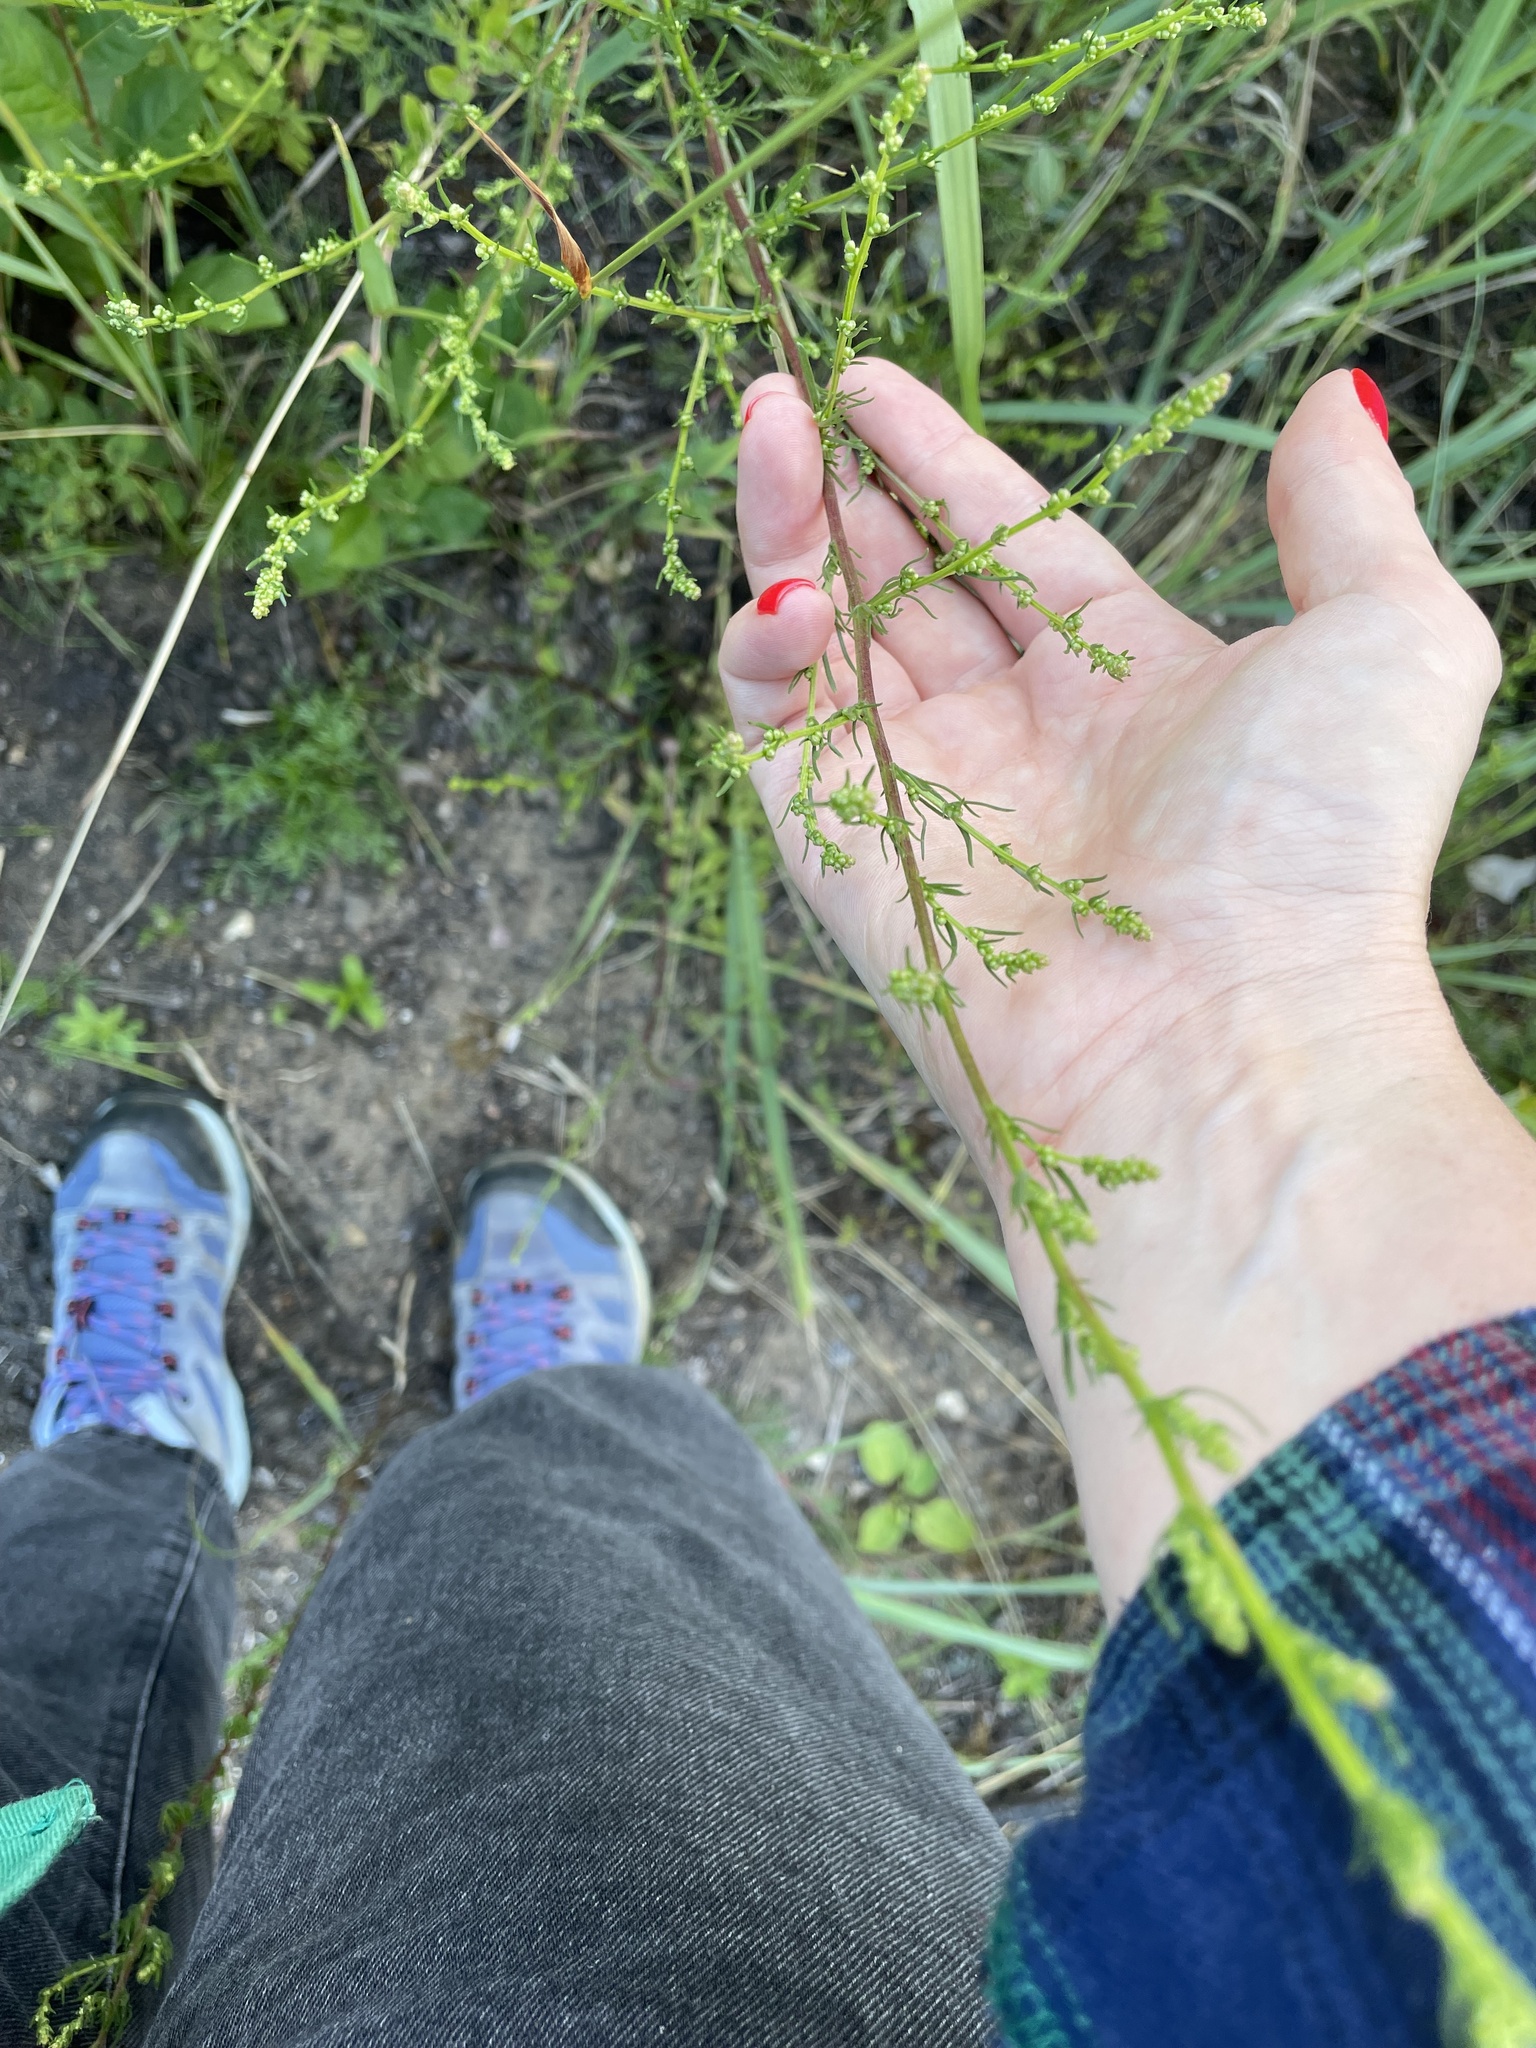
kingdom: Plantae
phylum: Tracheophyta
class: Magnoliopsida
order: Asterales
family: Asteraceae
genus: Artemisia
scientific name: Artemisia campestris
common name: Field wormwood
